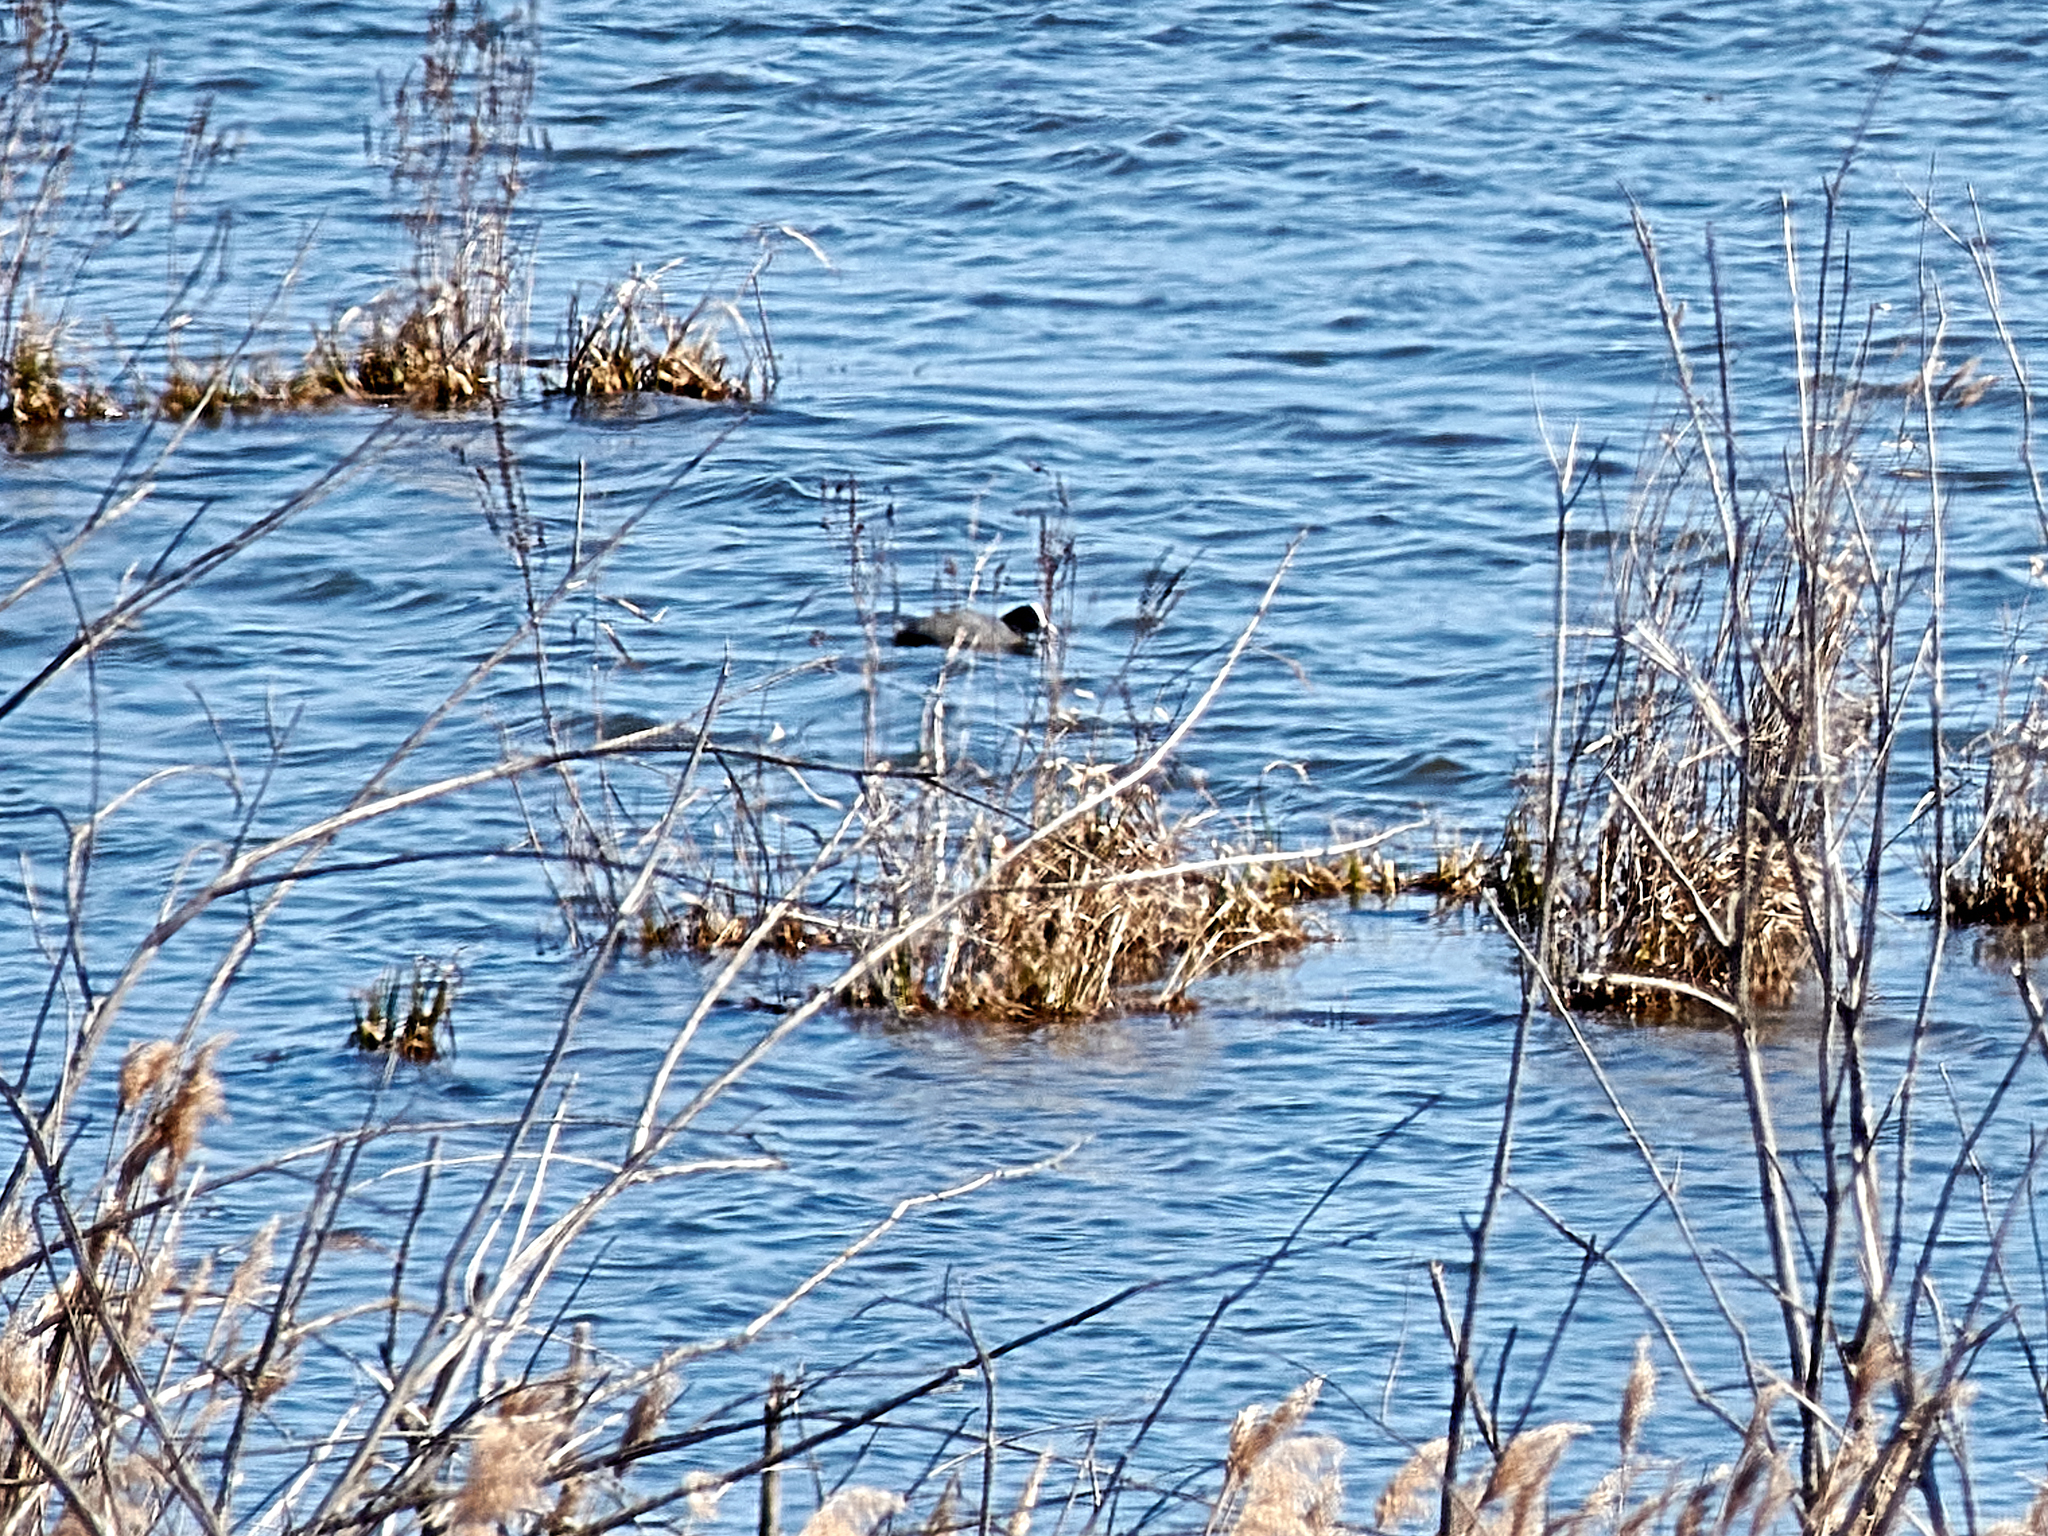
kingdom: Animalia
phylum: Chordata
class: Aves
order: Gruiformes
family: Rallidae
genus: Fulica
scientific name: Fulica atra
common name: Eurasian coot
